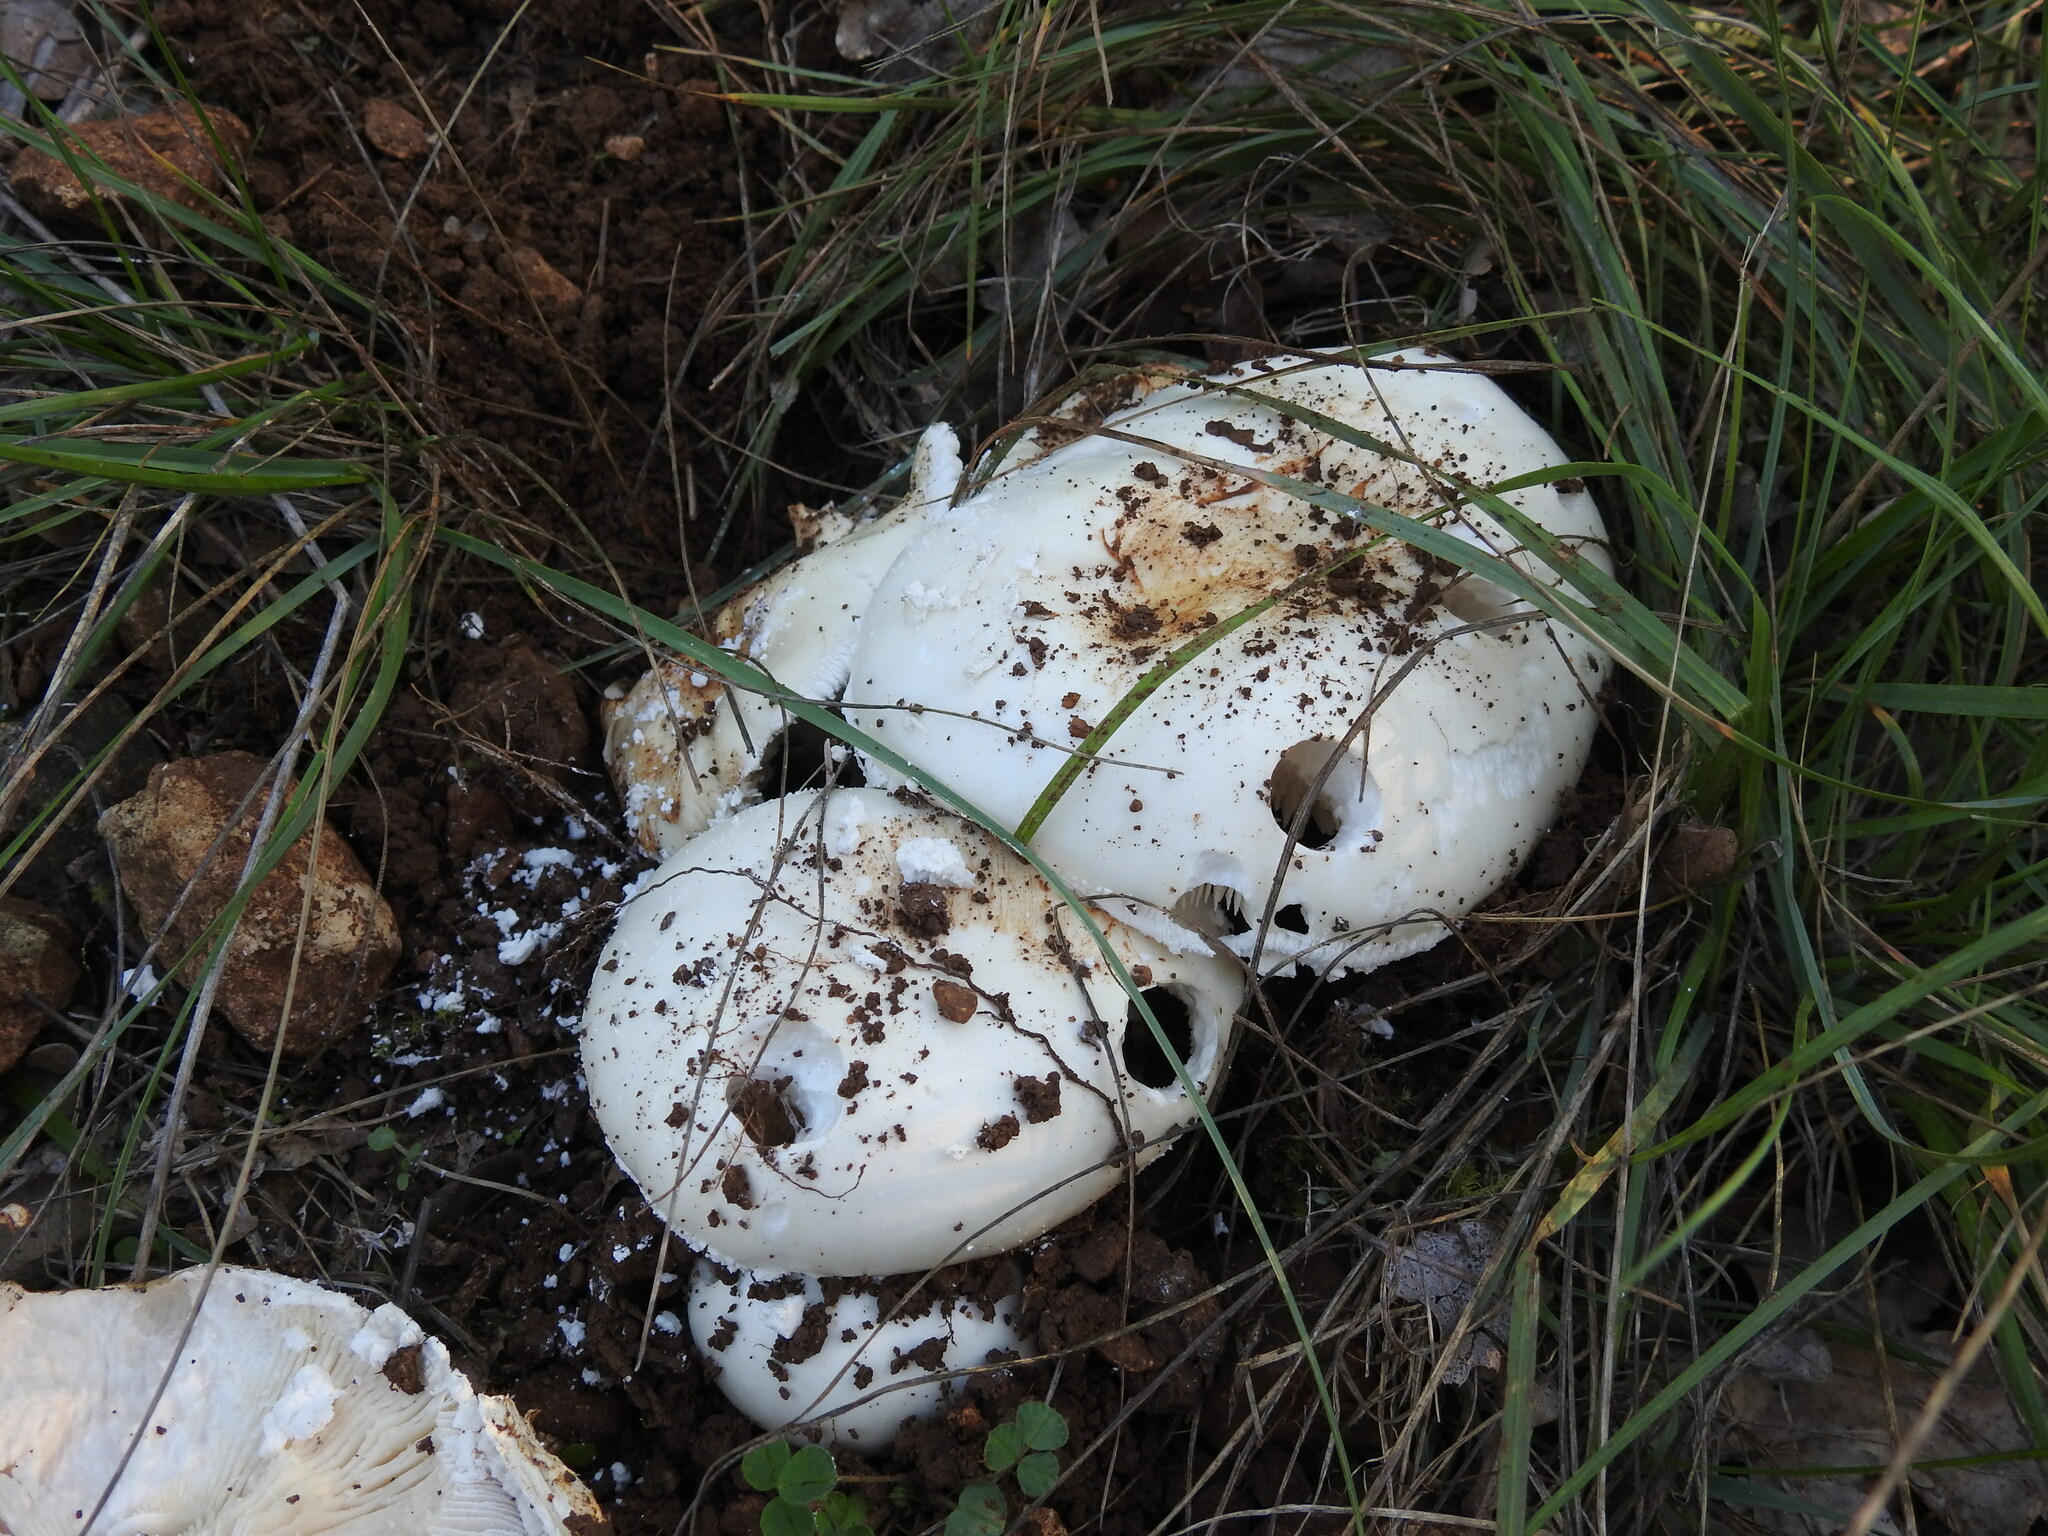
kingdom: Fungi
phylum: Basidiomycota
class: Agaricomycetes
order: Agaricales
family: Amanitaceae
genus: Amanita
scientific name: Amanita ovoidea
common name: Bearded amanita
